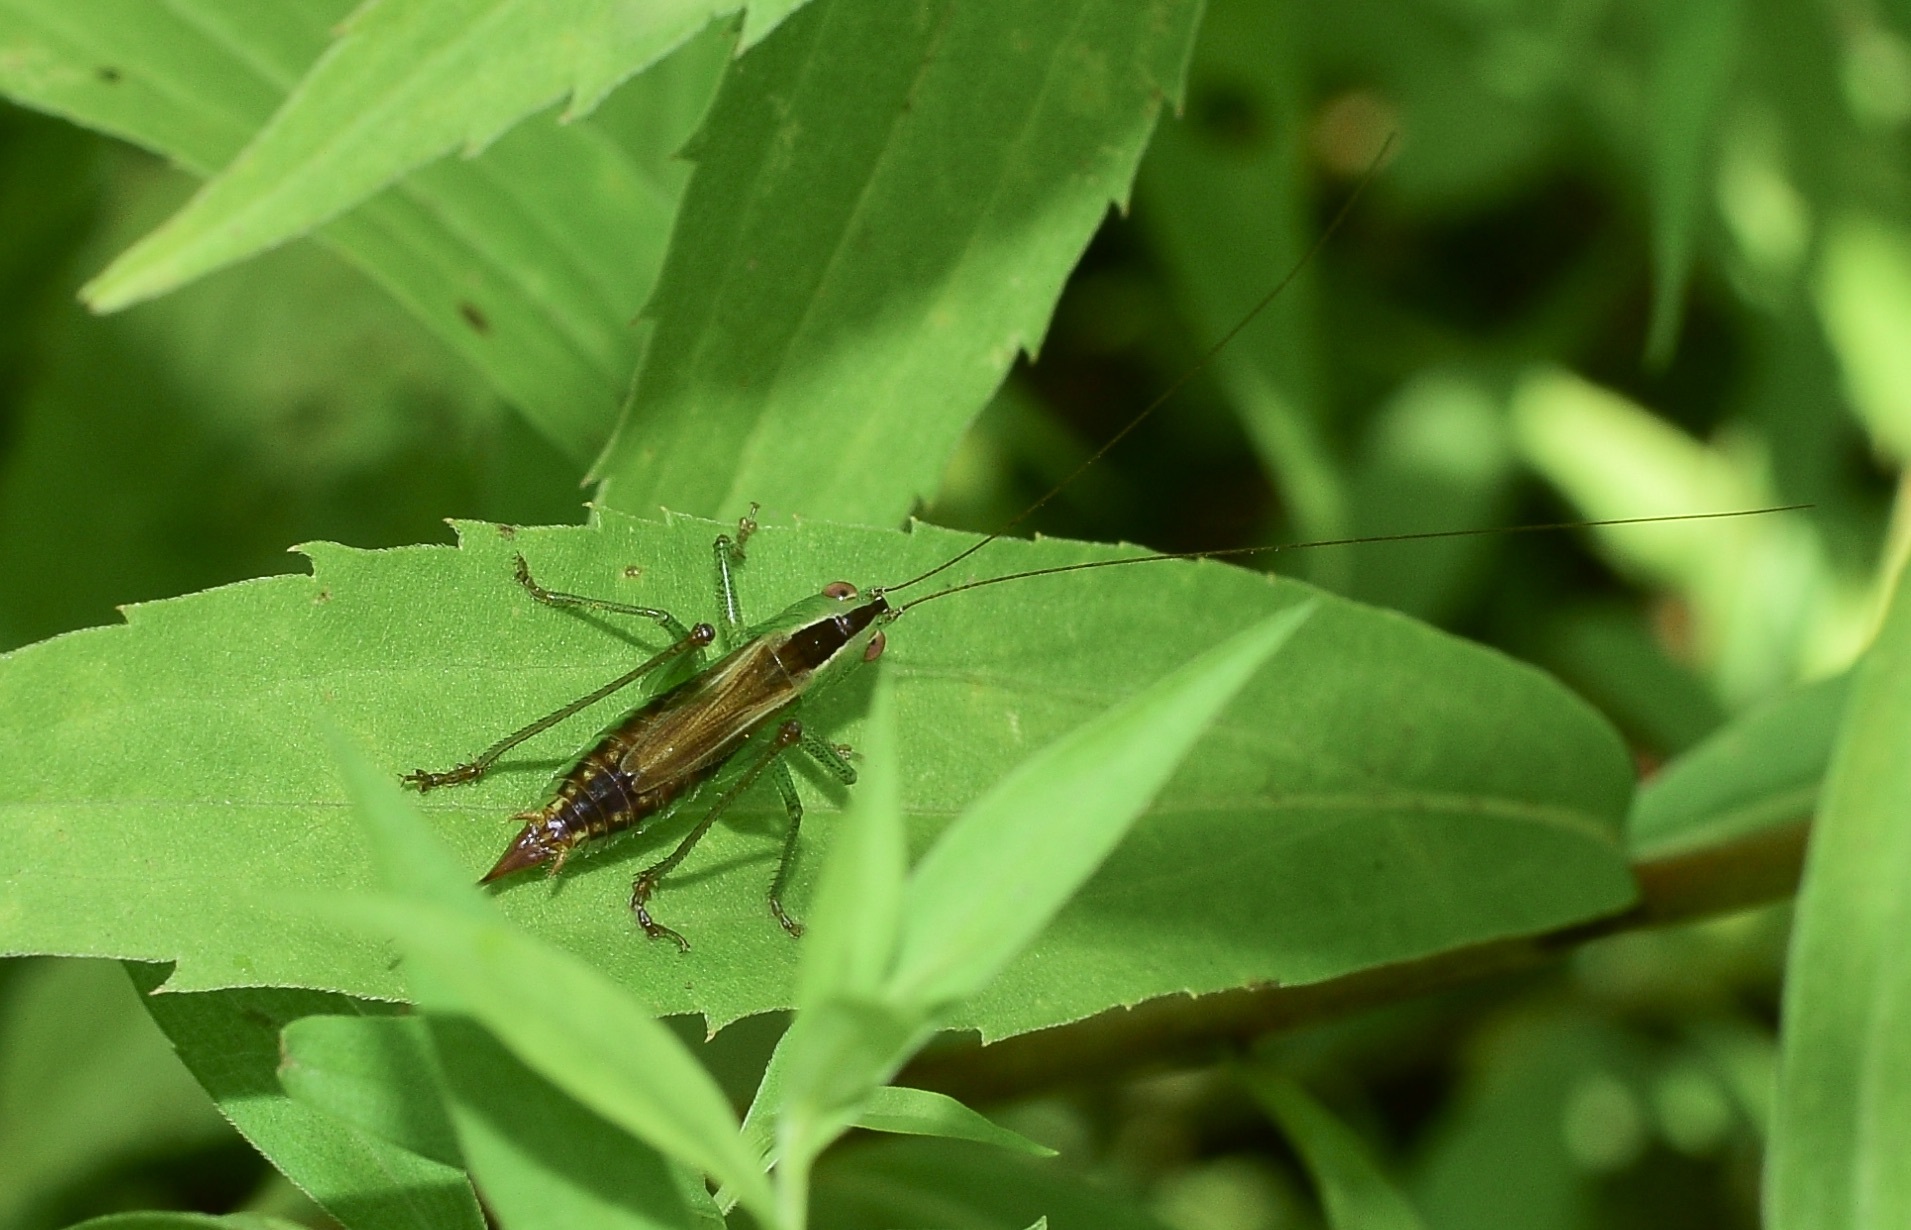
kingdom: Animalia
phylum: Arthropoda
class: Insecta
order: Orthoptera
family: Tettigoniidae
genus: Conocephalus
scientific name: Conocephalus brevipennis
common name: Short-winged meadow katydid
